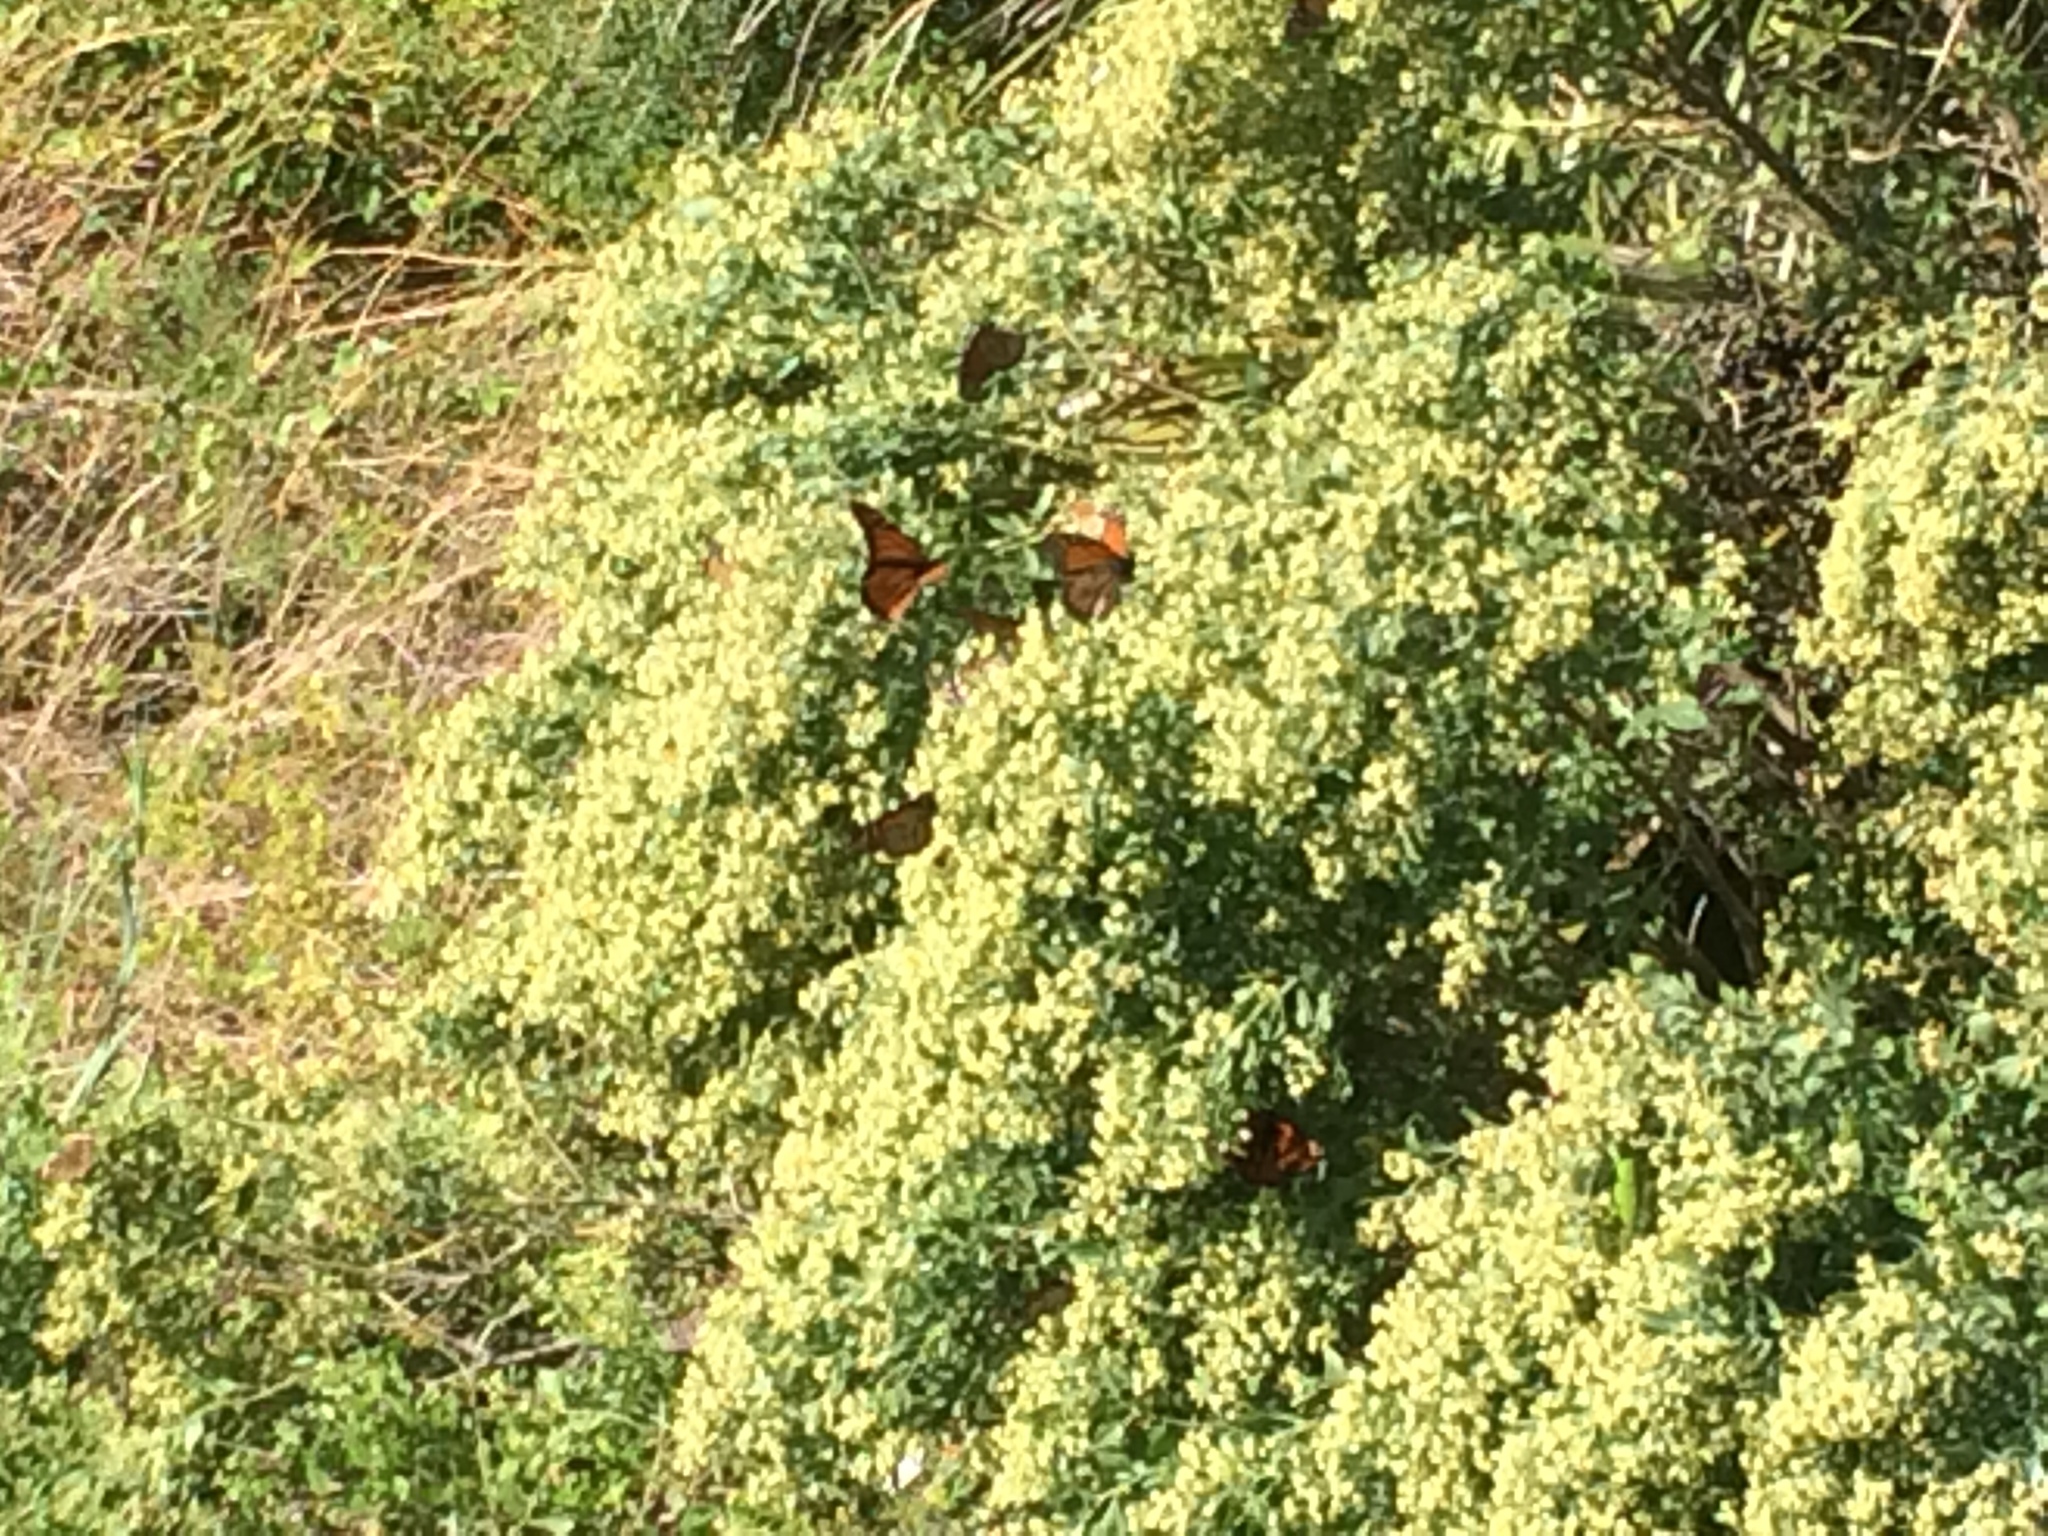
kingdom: Animalia
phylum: Arthropoda
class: Insecta
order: Lepidoptera
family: Nymphalidae
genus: Danaus
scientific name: Danaus plexippus
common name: Monarch
